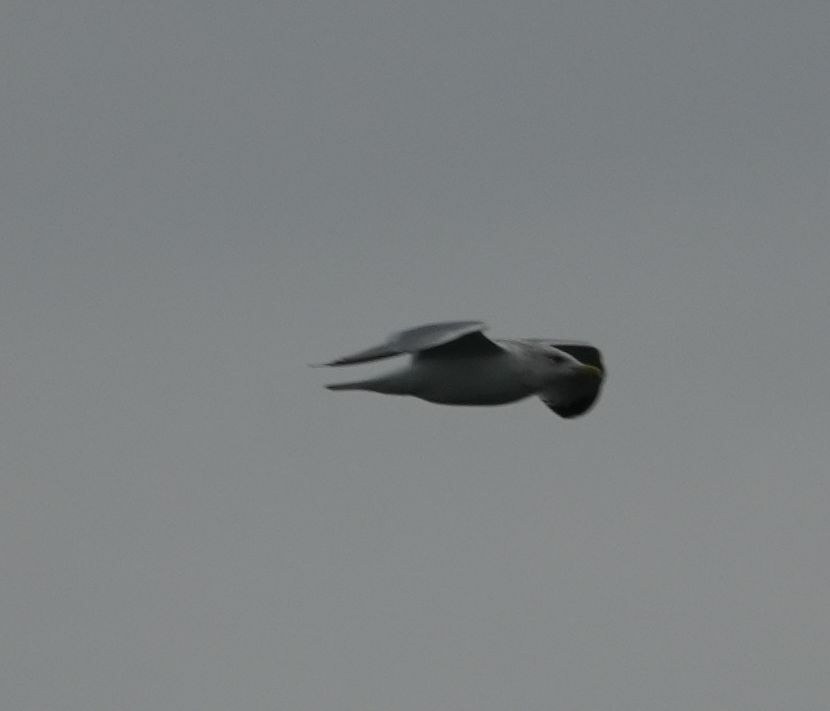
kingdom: Animalia
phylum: Chordata
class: Aves
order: Charadriiformes
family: Laridae
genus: Larus
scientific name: Larus delawarensis
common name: Ring-billed gull
